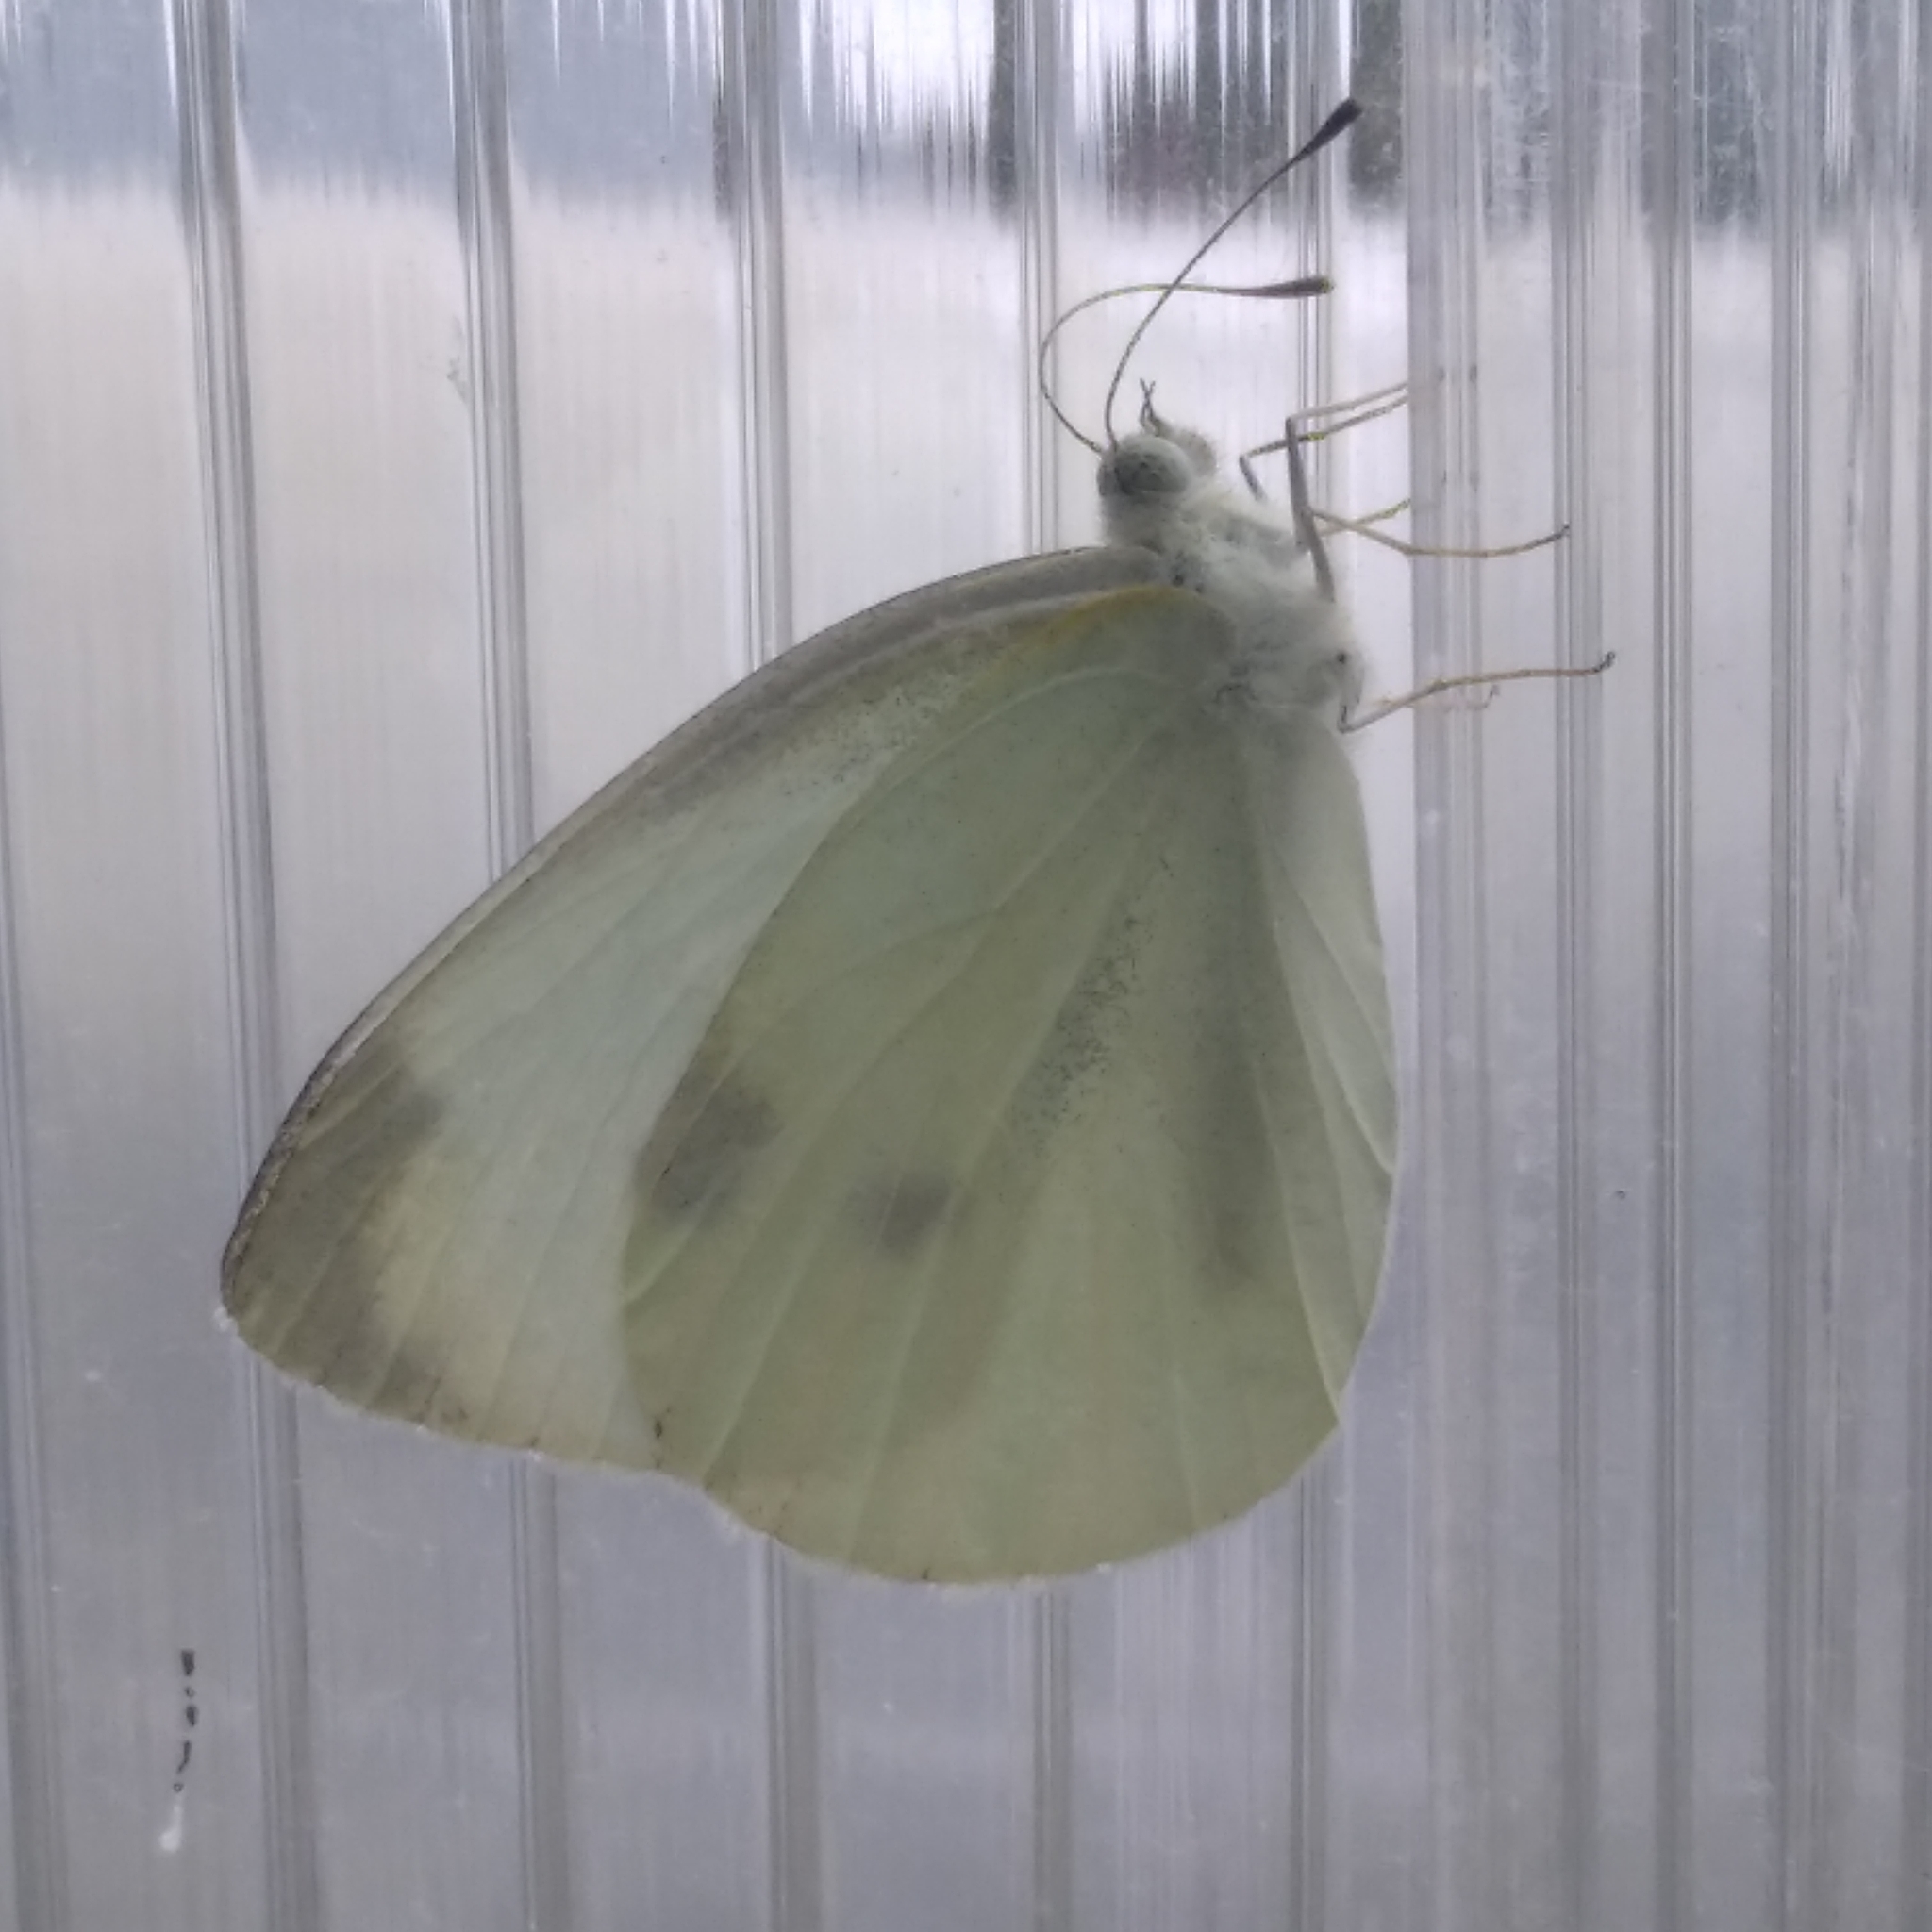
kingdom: Animalia
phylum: Arthropoda
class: Insecta
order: Lepidoptera
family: Pieridae
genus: Pieris
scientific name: Pieris brassicae
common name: Large white
